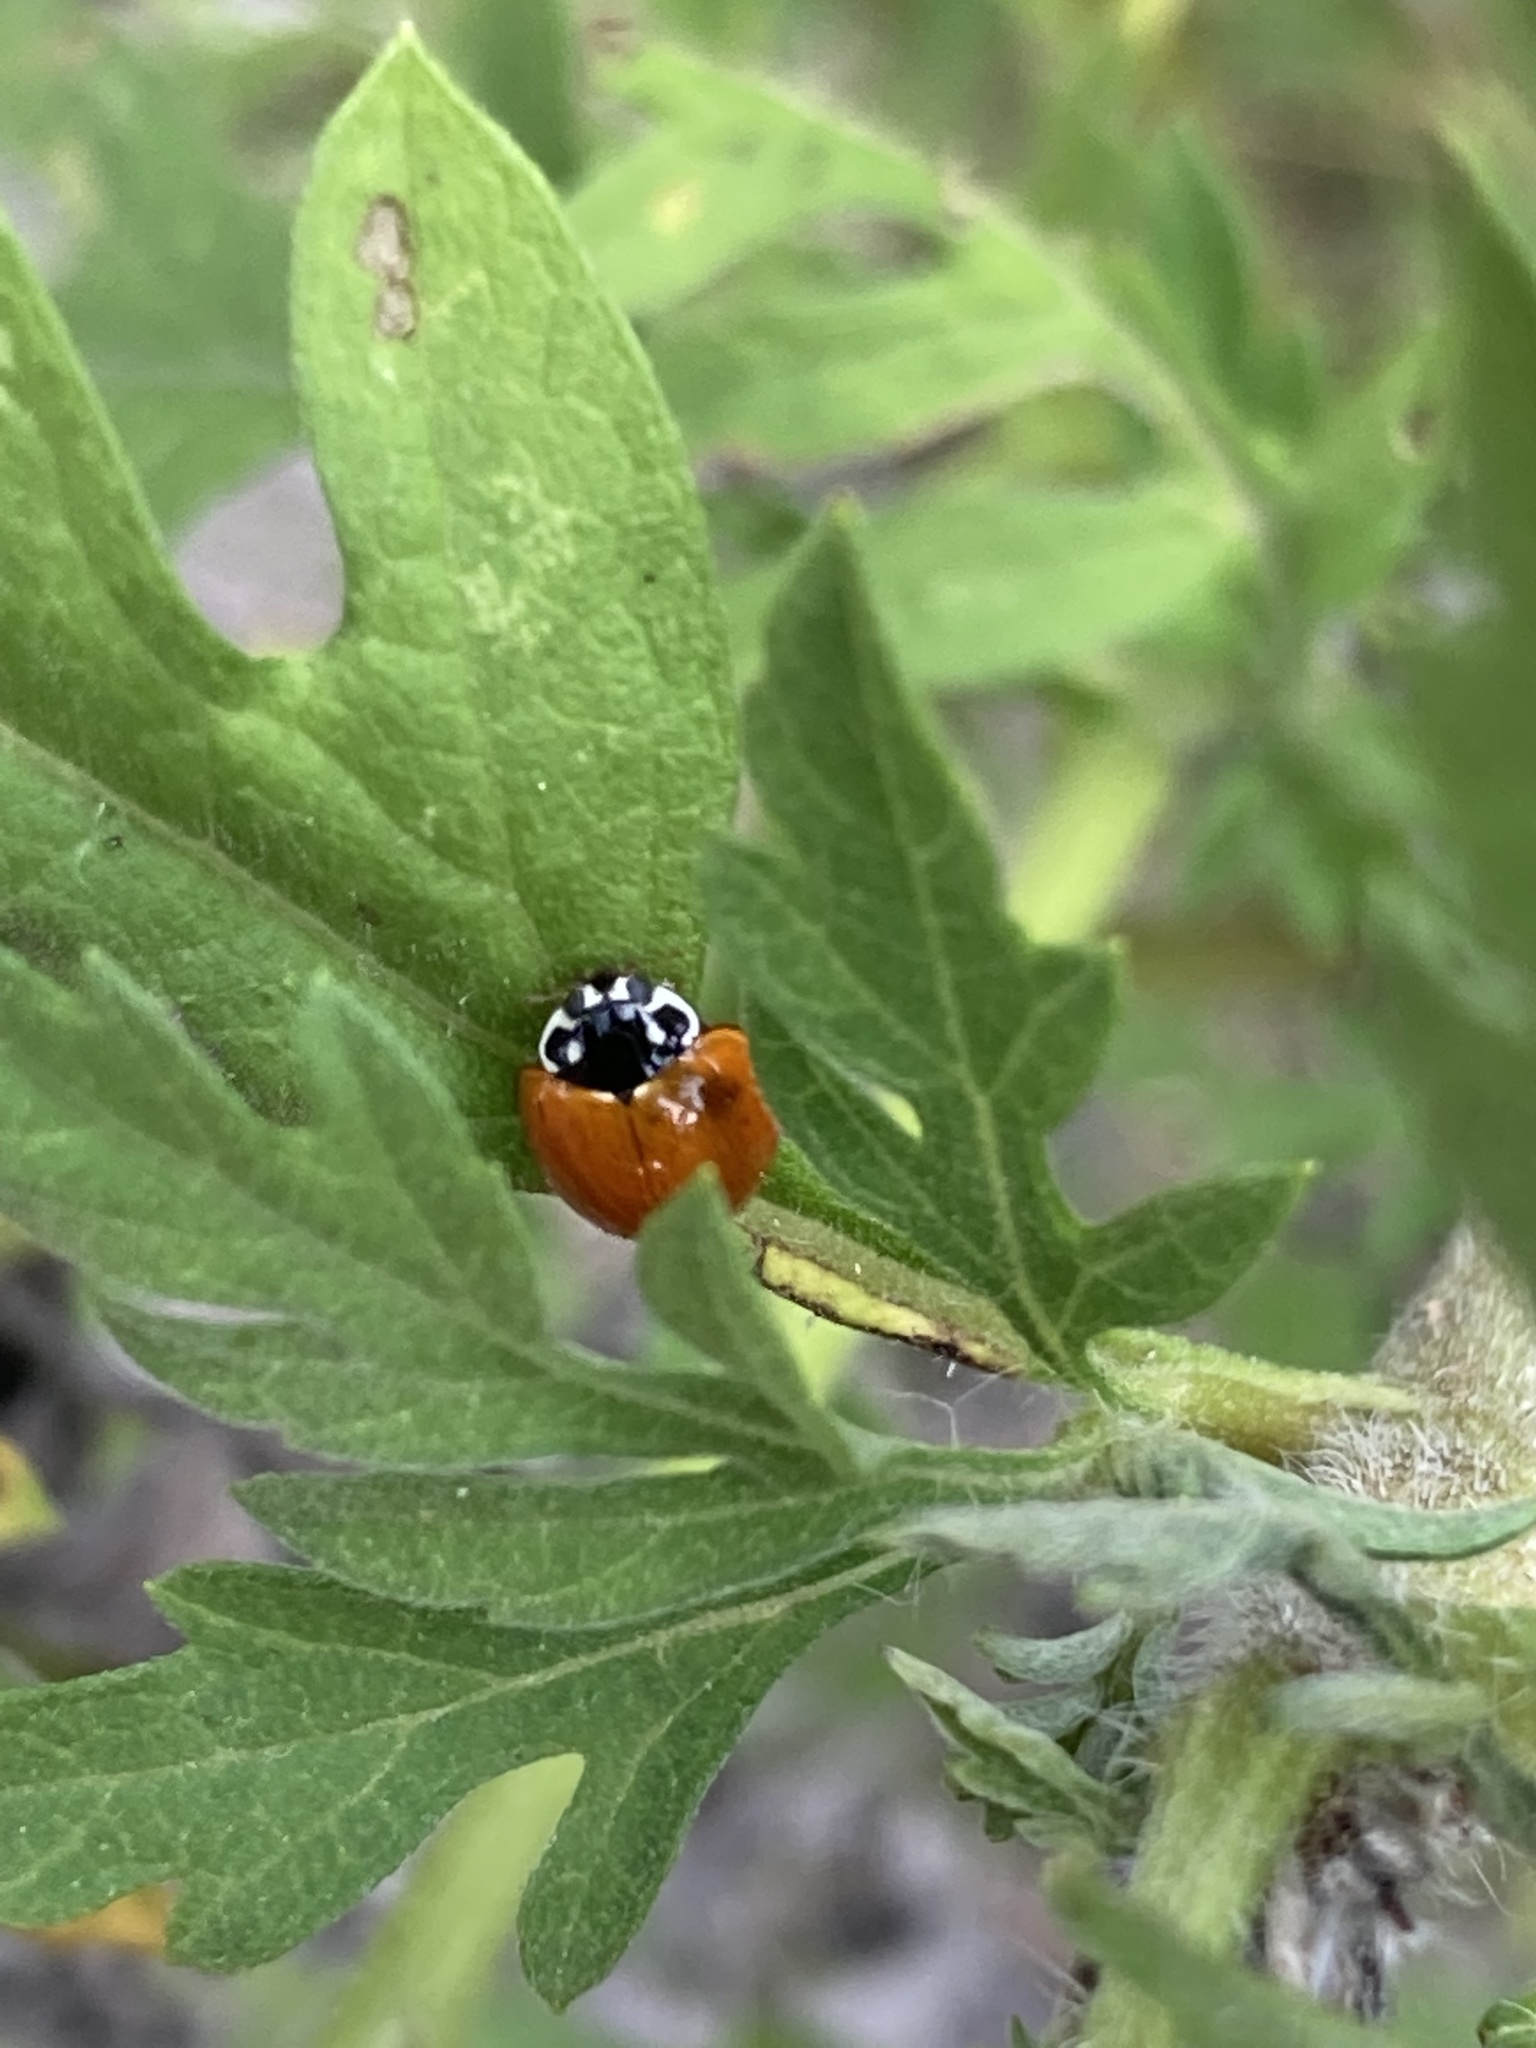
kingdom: Animalia
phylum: Arthropoda
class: Insecta
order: Coleoptera
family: Coccinellidae
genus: Cycloneda
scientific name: Cycloneda sanguinea
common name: Ladybird beetle
